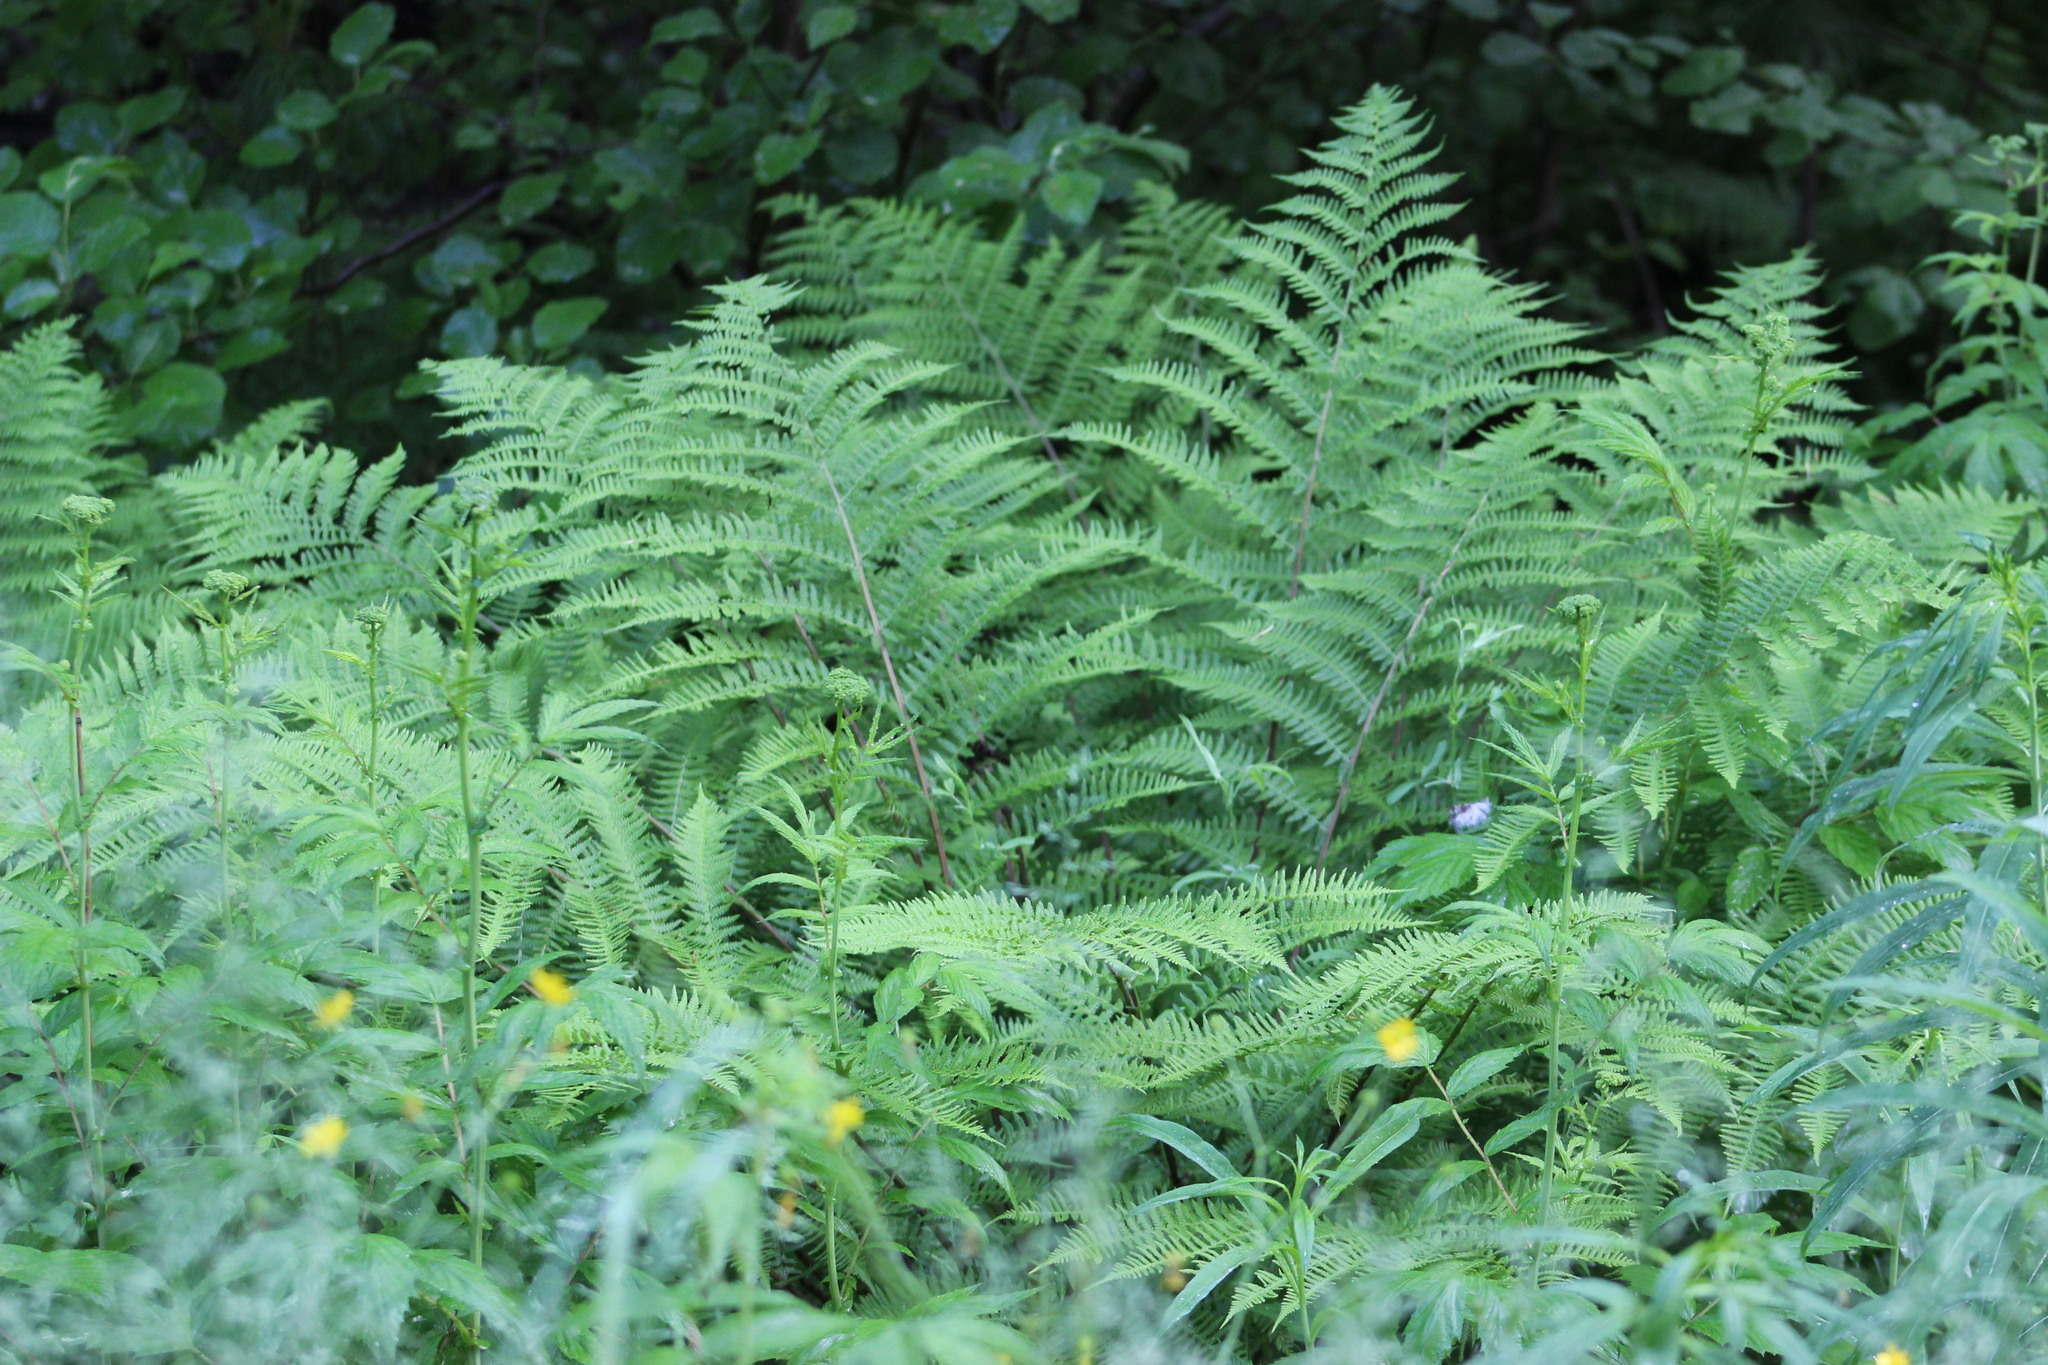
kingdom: Plantae
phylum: Tracheophyta
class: Polypodiopsida
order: Polypodiales
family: Athyriaceae
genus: Athyrium
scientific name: Athyrium filix-femina
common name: Lady fern
